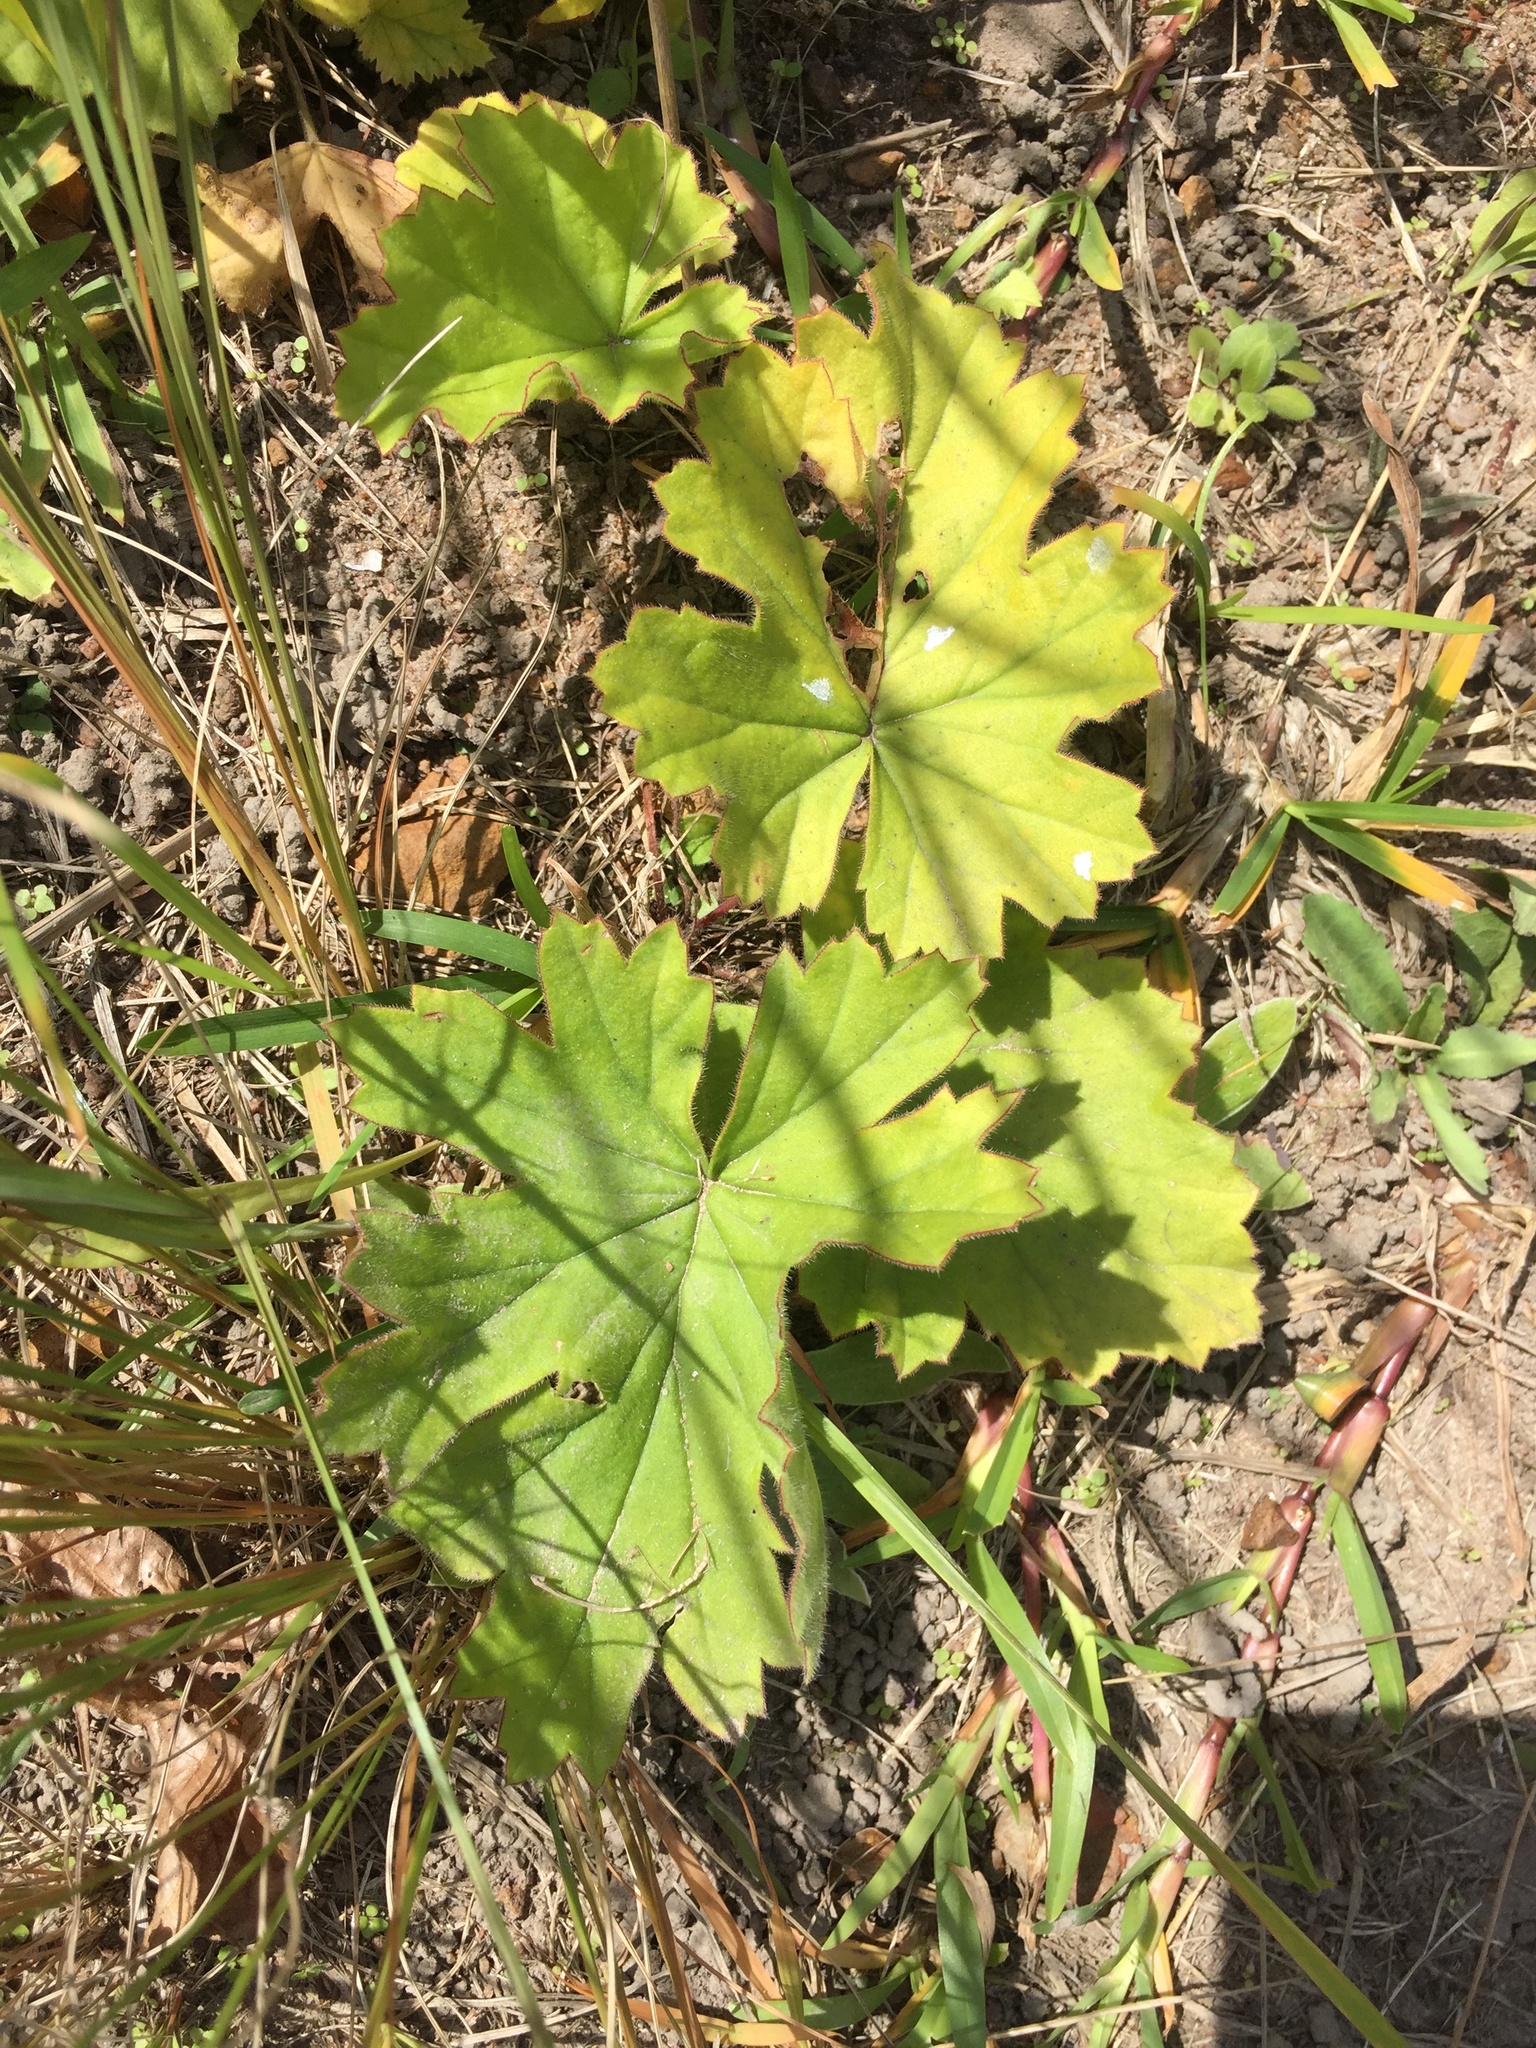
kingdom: Plantae
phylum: Tracheophyta
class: Magnoliopsida
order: Geraniales
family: Geraniaceae
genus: Pelargonium
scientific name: Pelargonium luridum
